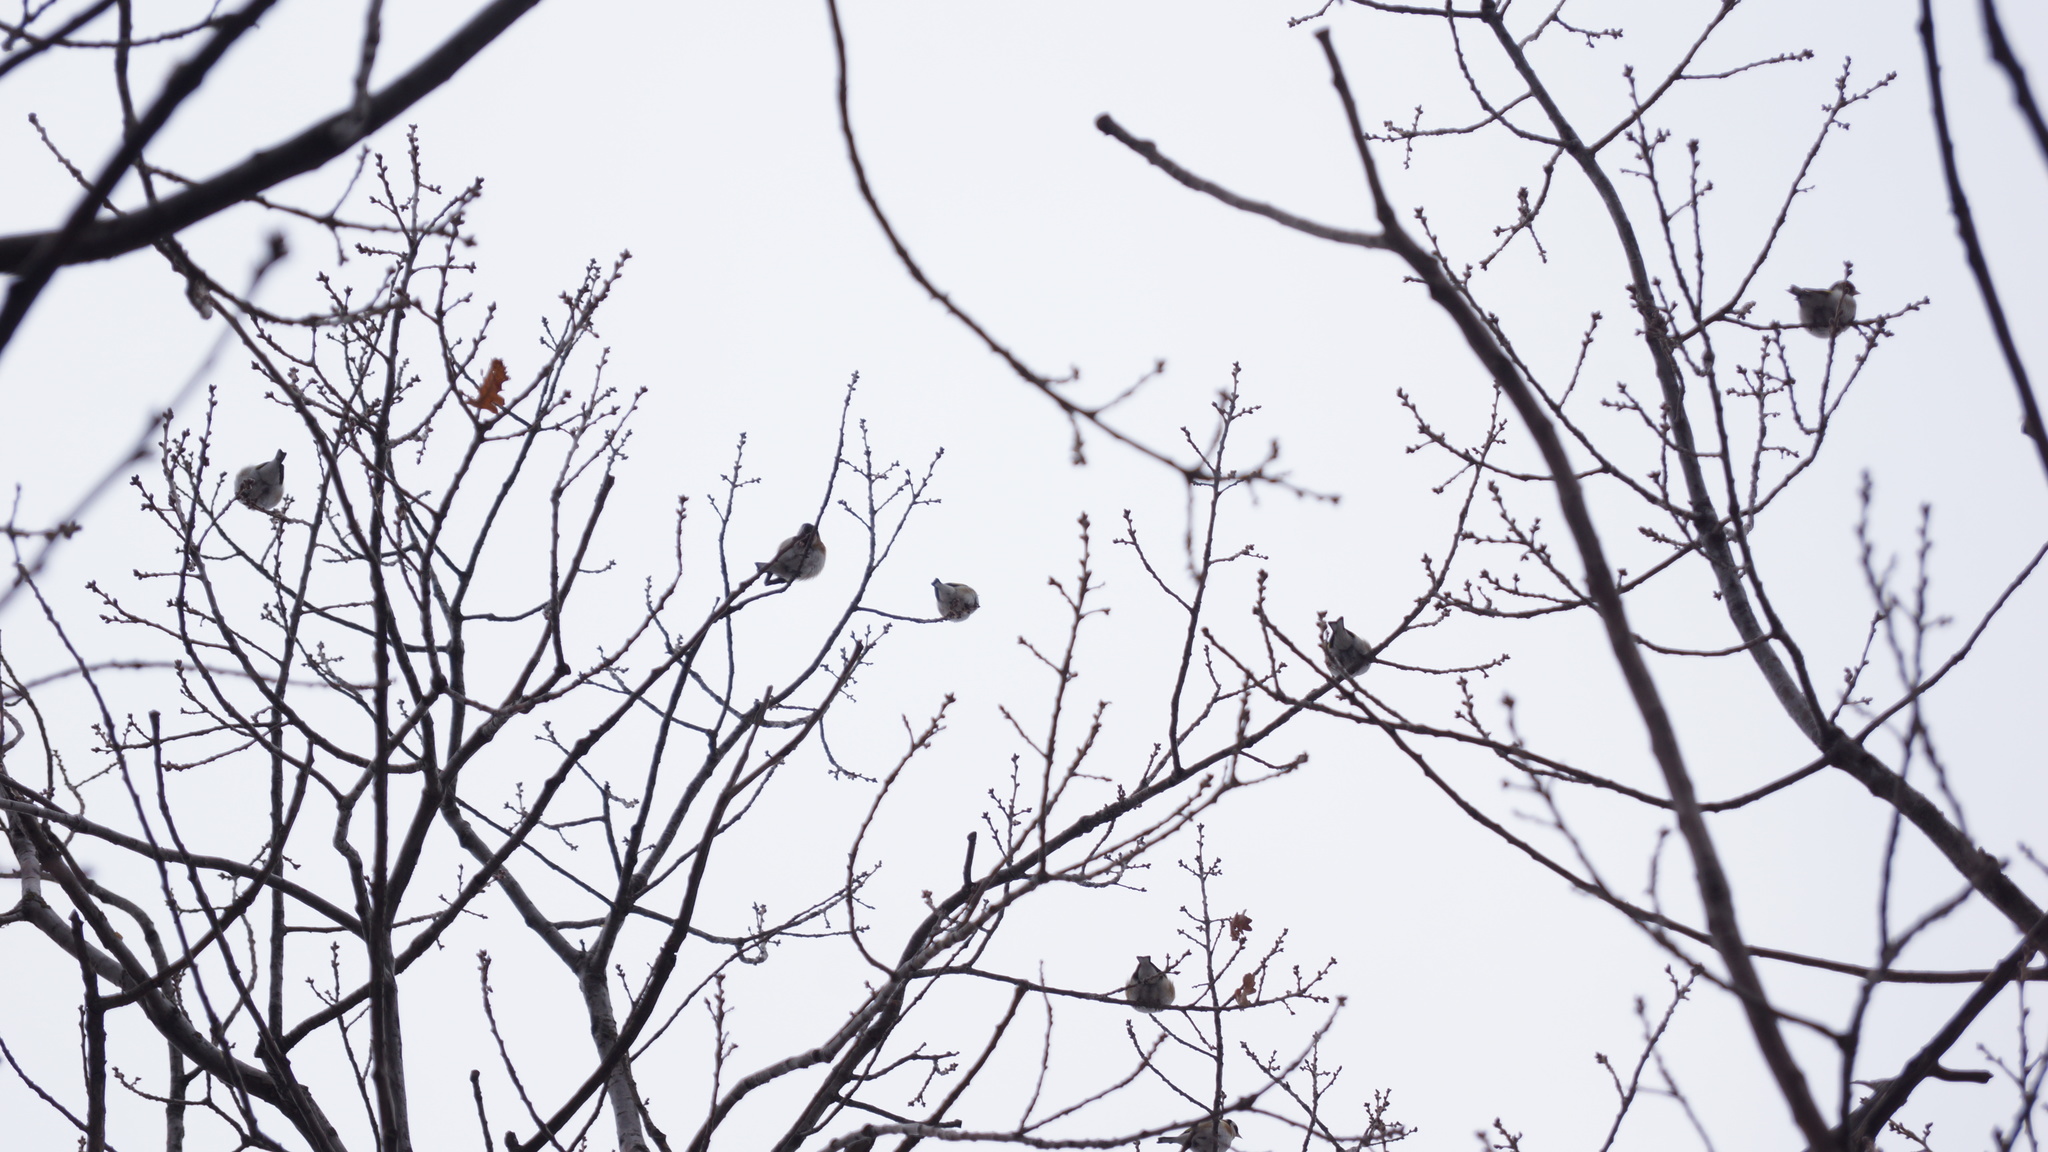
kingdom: Animalia
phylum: Chordata
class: Aves
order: Passeriformes
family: Fringillidae
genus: Carduelis
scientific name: Carduelis carduelis
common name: European goldfinch
